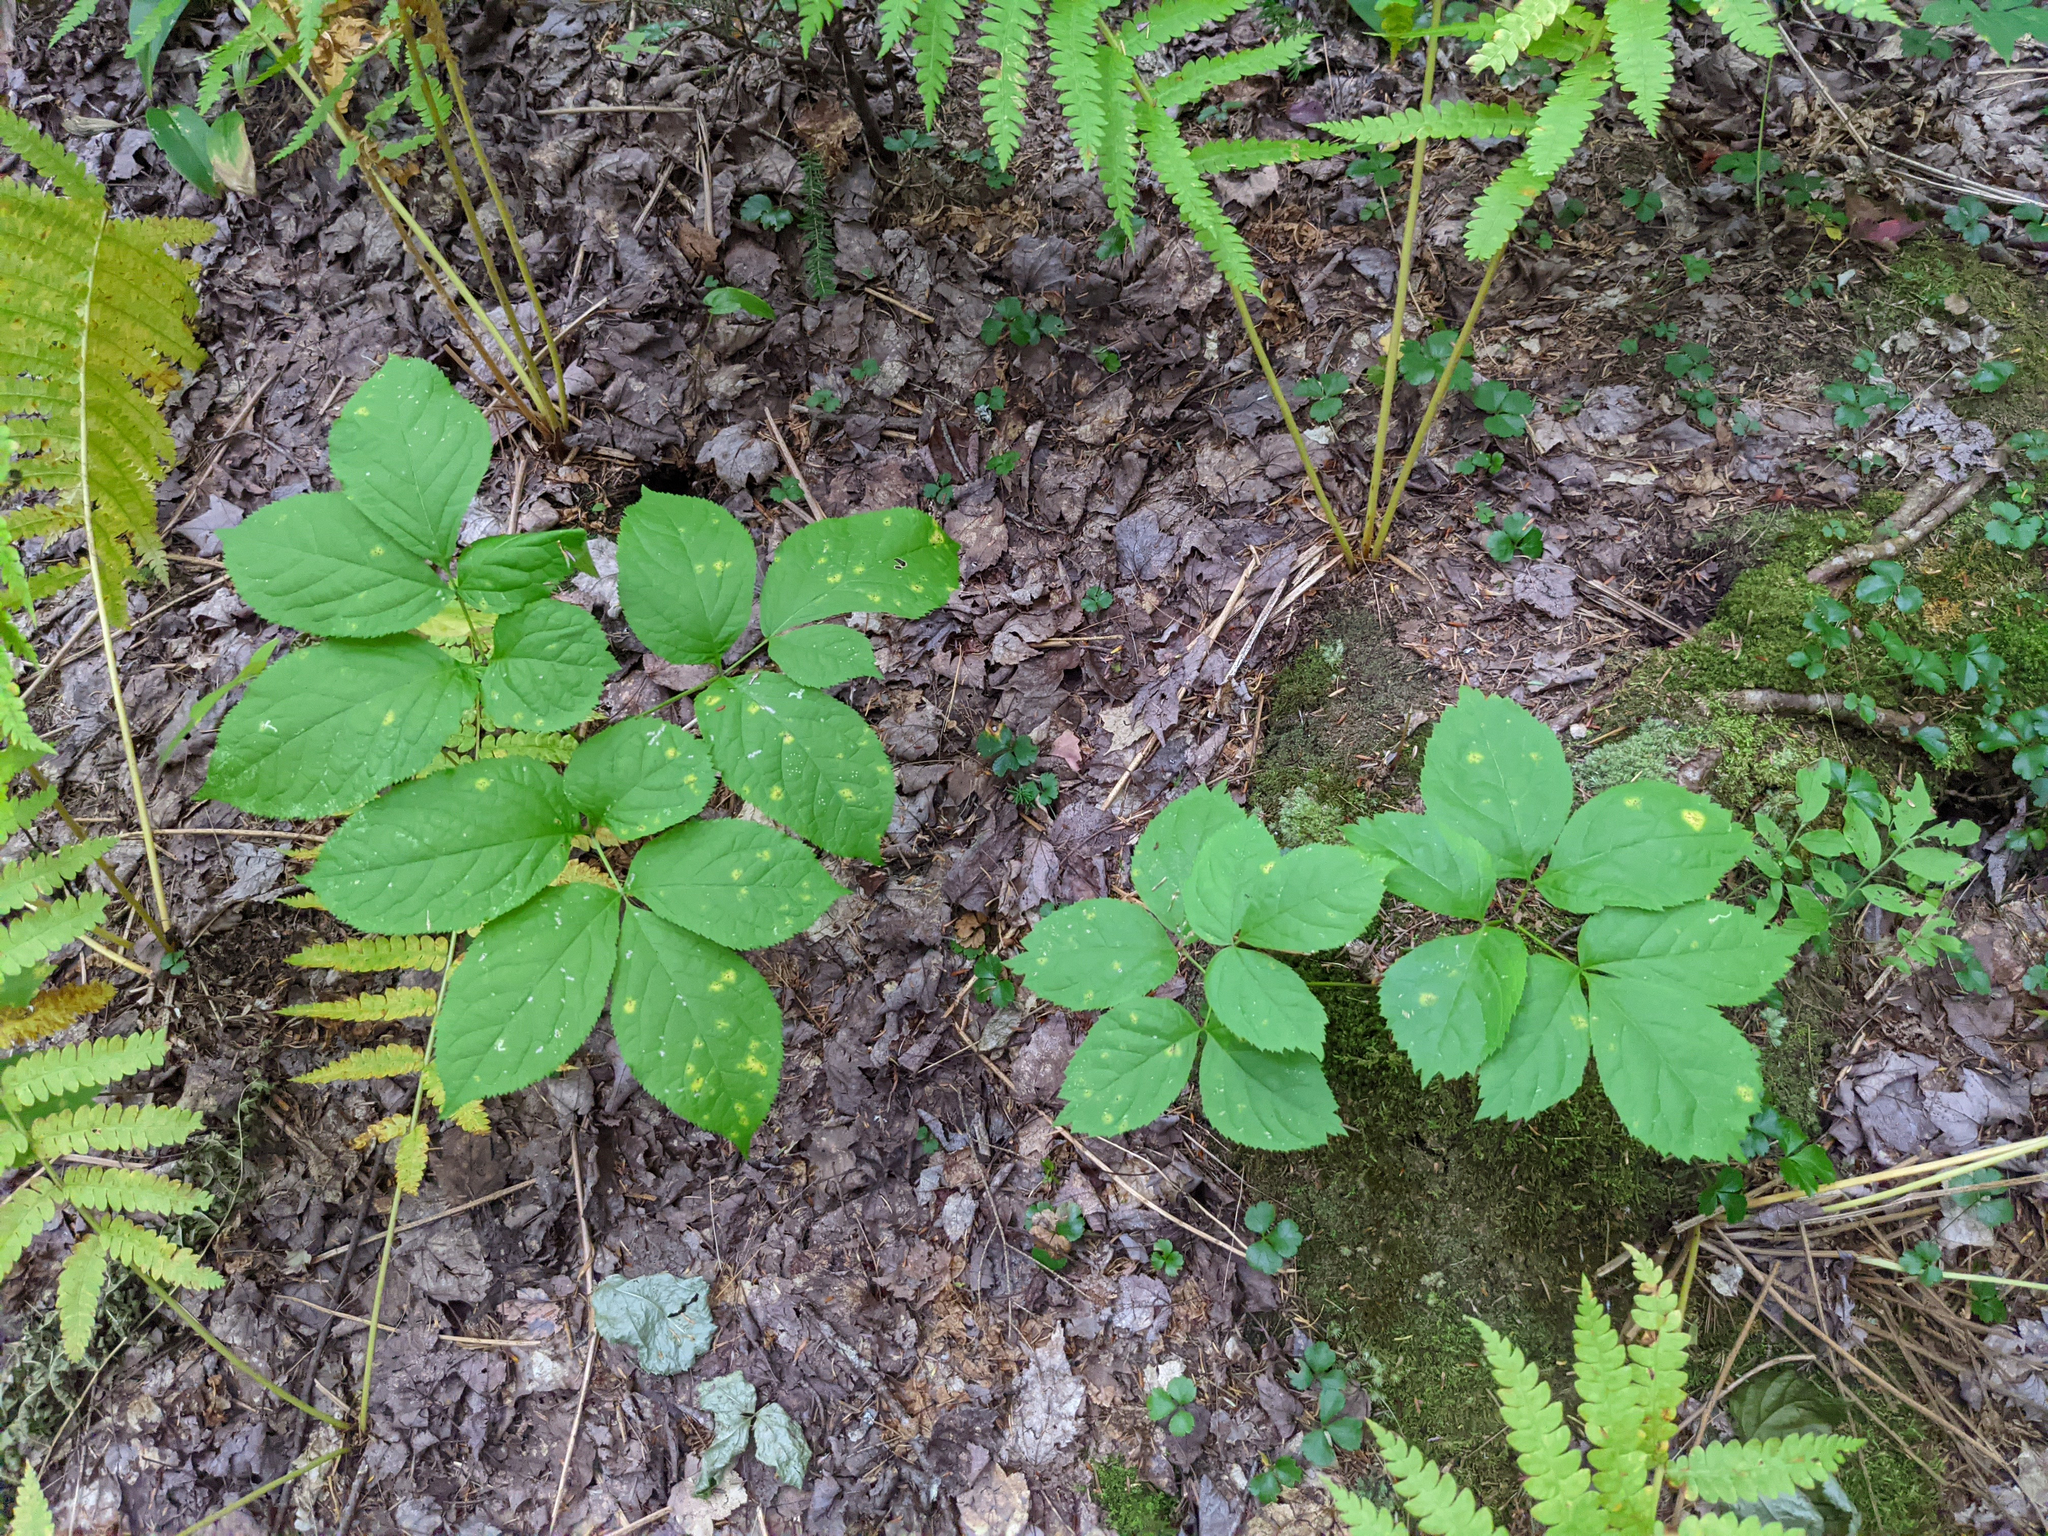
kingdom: Plantae
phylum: Tracheophyta
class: Magnoliopsida
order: Apiales
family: Araliaceae
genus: Aralia
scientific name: Aralia nudicaulis
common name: Wild sarsaparilla
